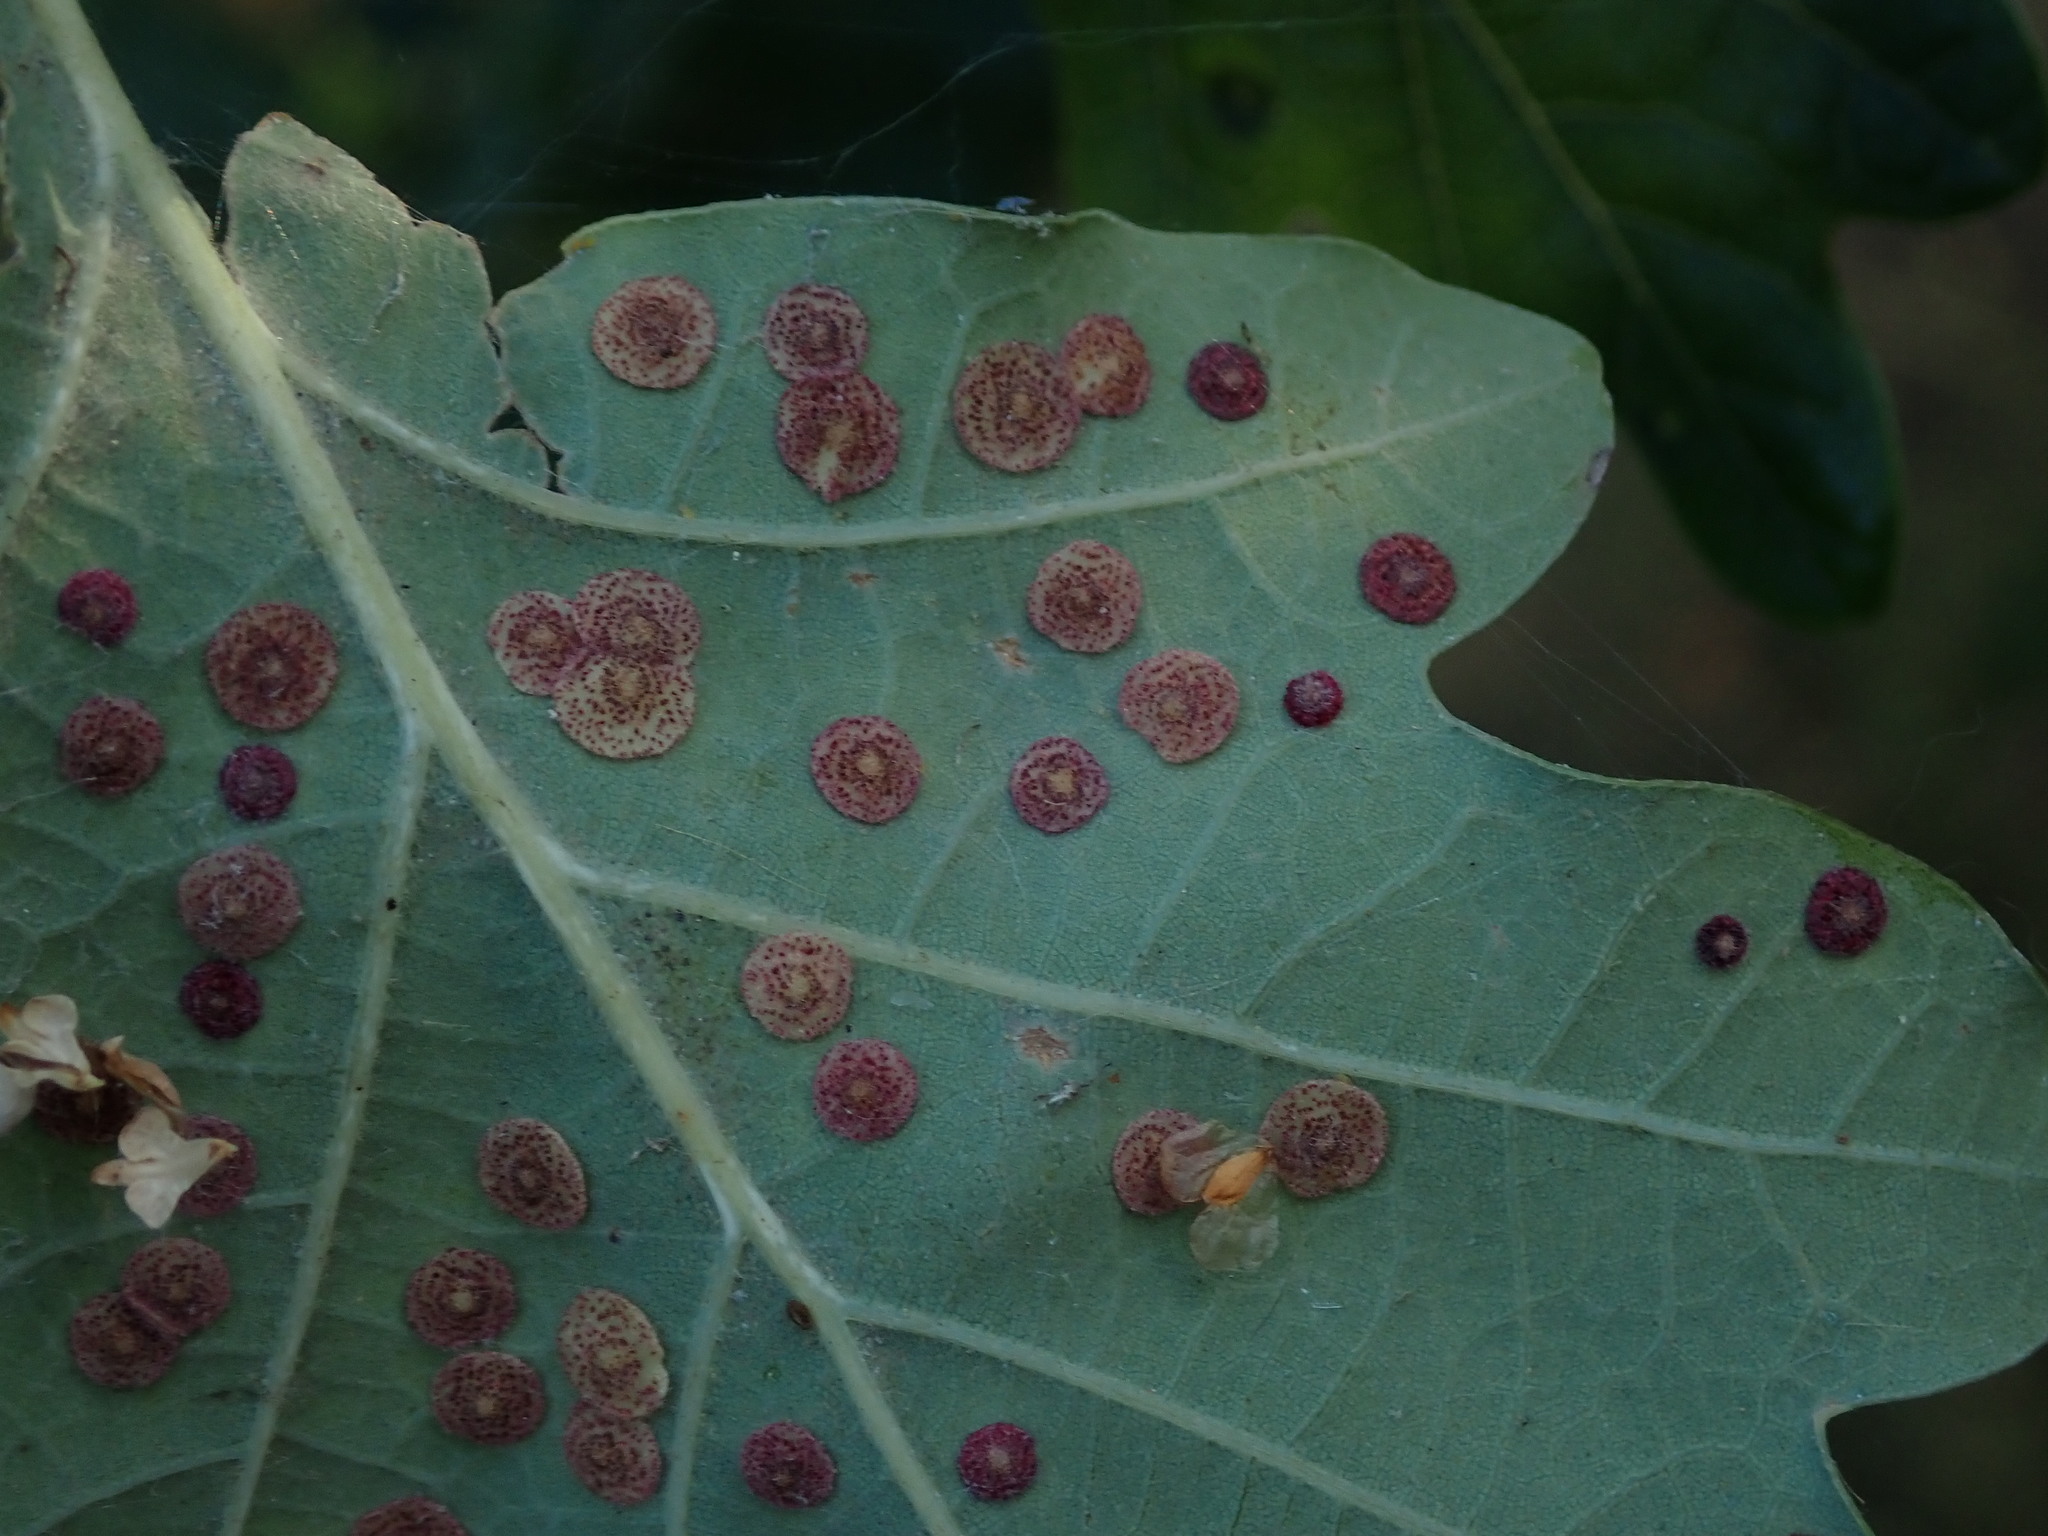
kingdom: Animalia
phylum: Arthropoda
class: Insecta
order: Hymenoptera
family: Cynipidae
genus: Neuroterus
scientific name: Neuroterus quercusbaccarum
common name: Common spangle gall
